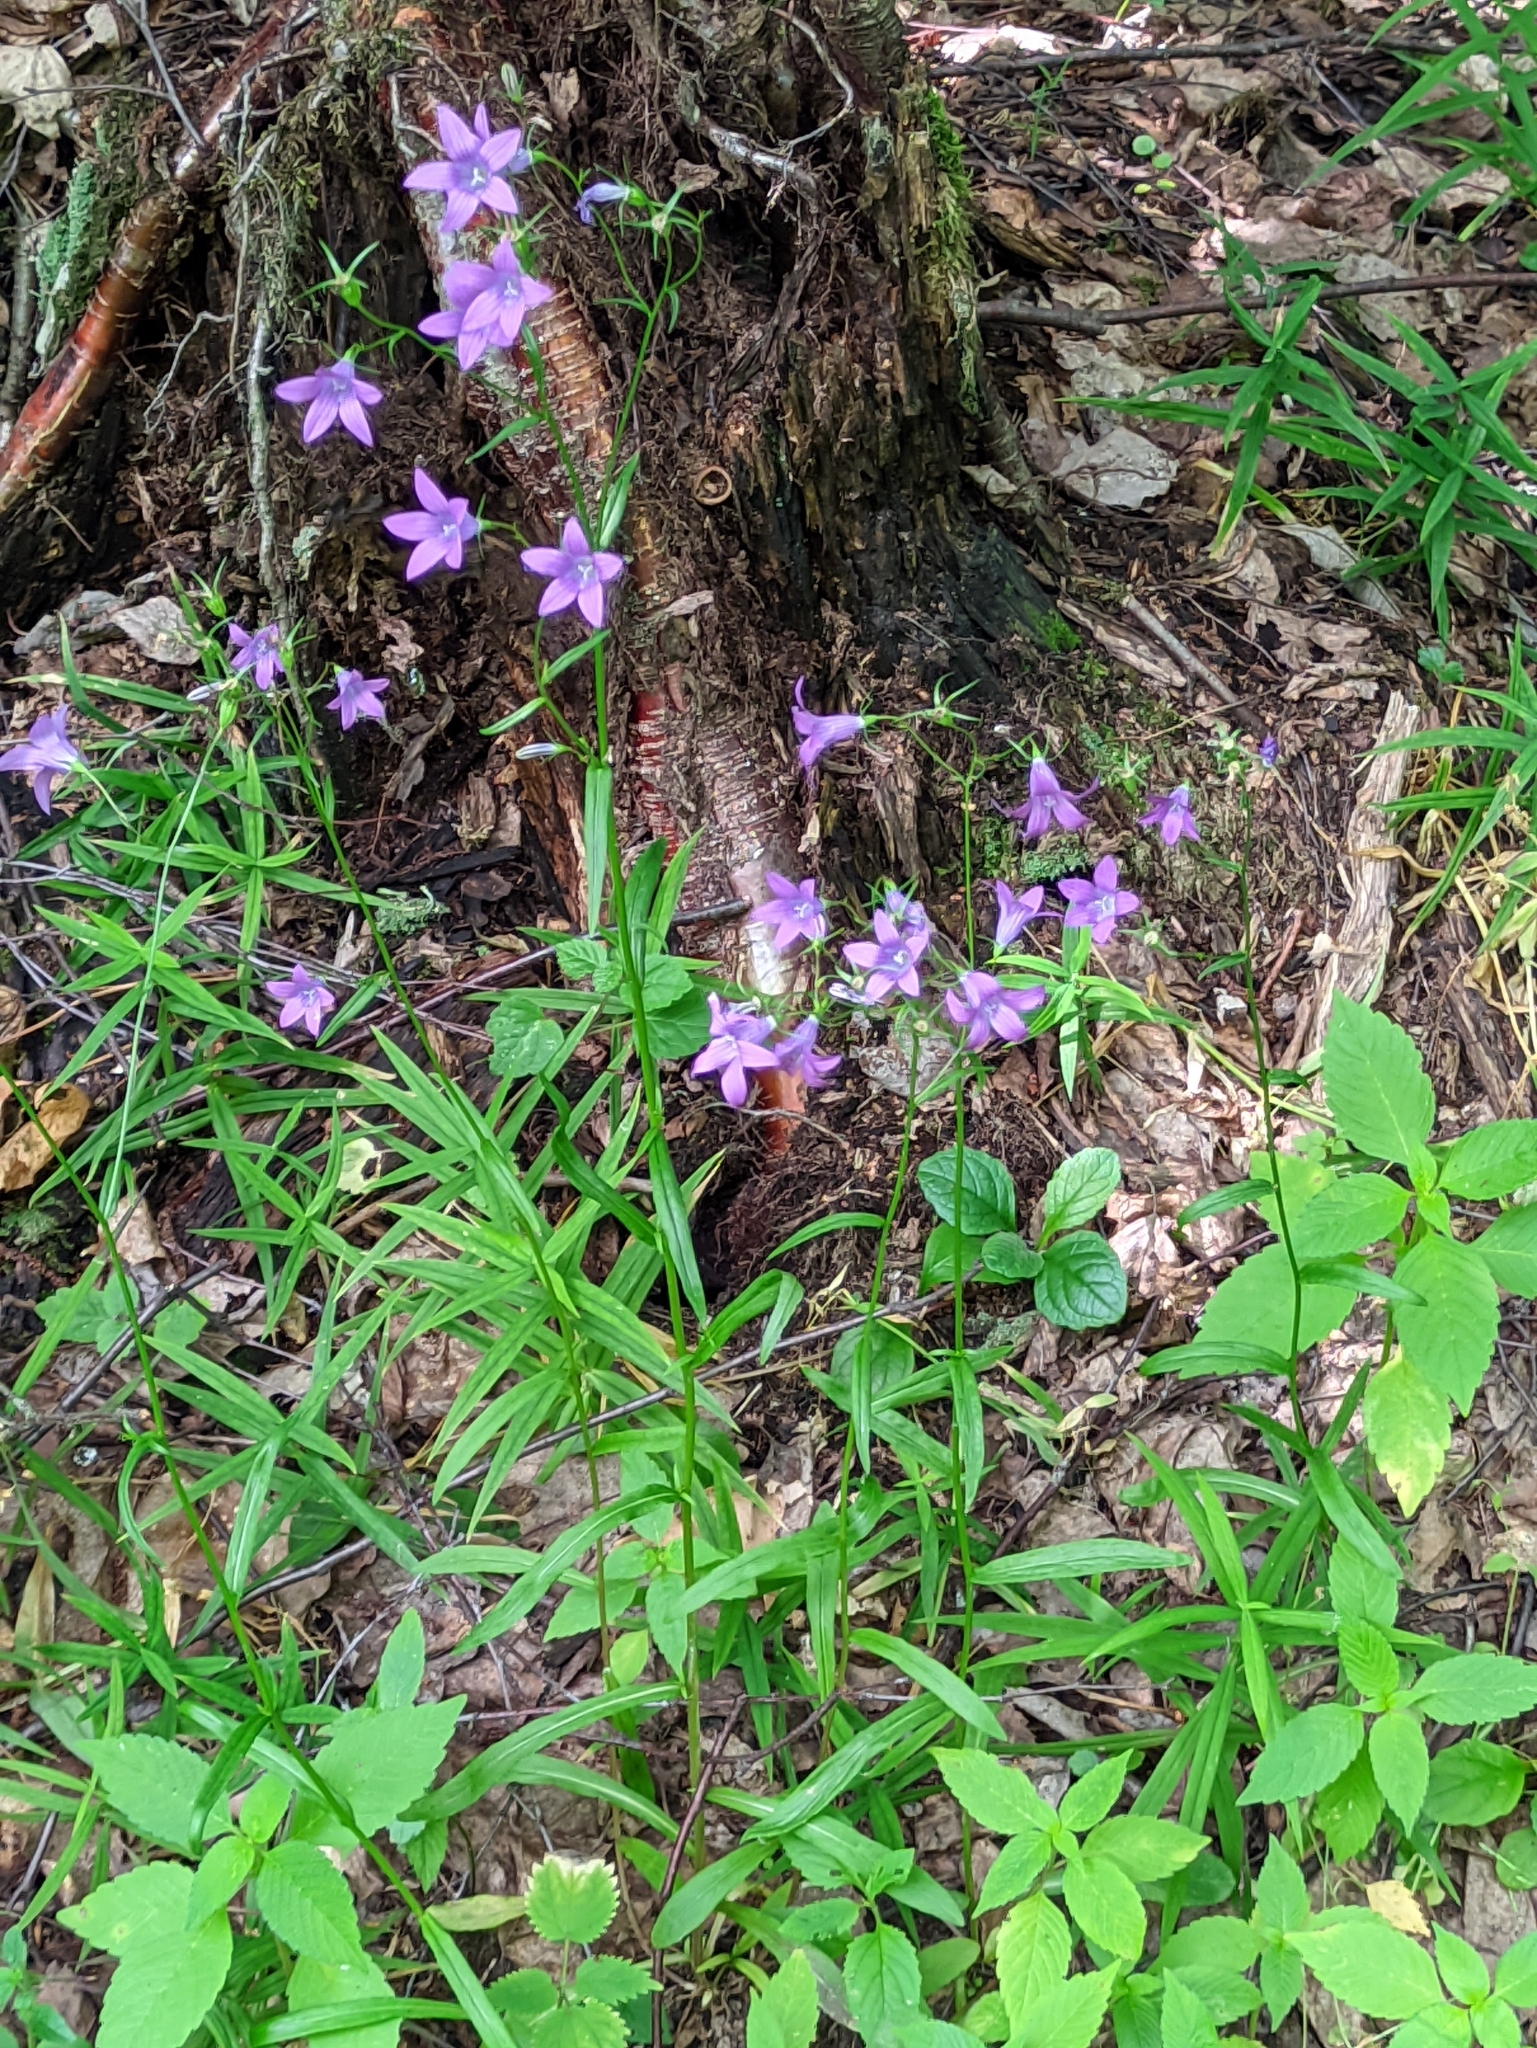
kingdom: Plantae
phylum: Tracheophyta
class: Magnoliopsida
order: Asterales
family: Campanulaceae
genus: Campanula
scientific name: Campanula patula
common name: Spreading bellflower
